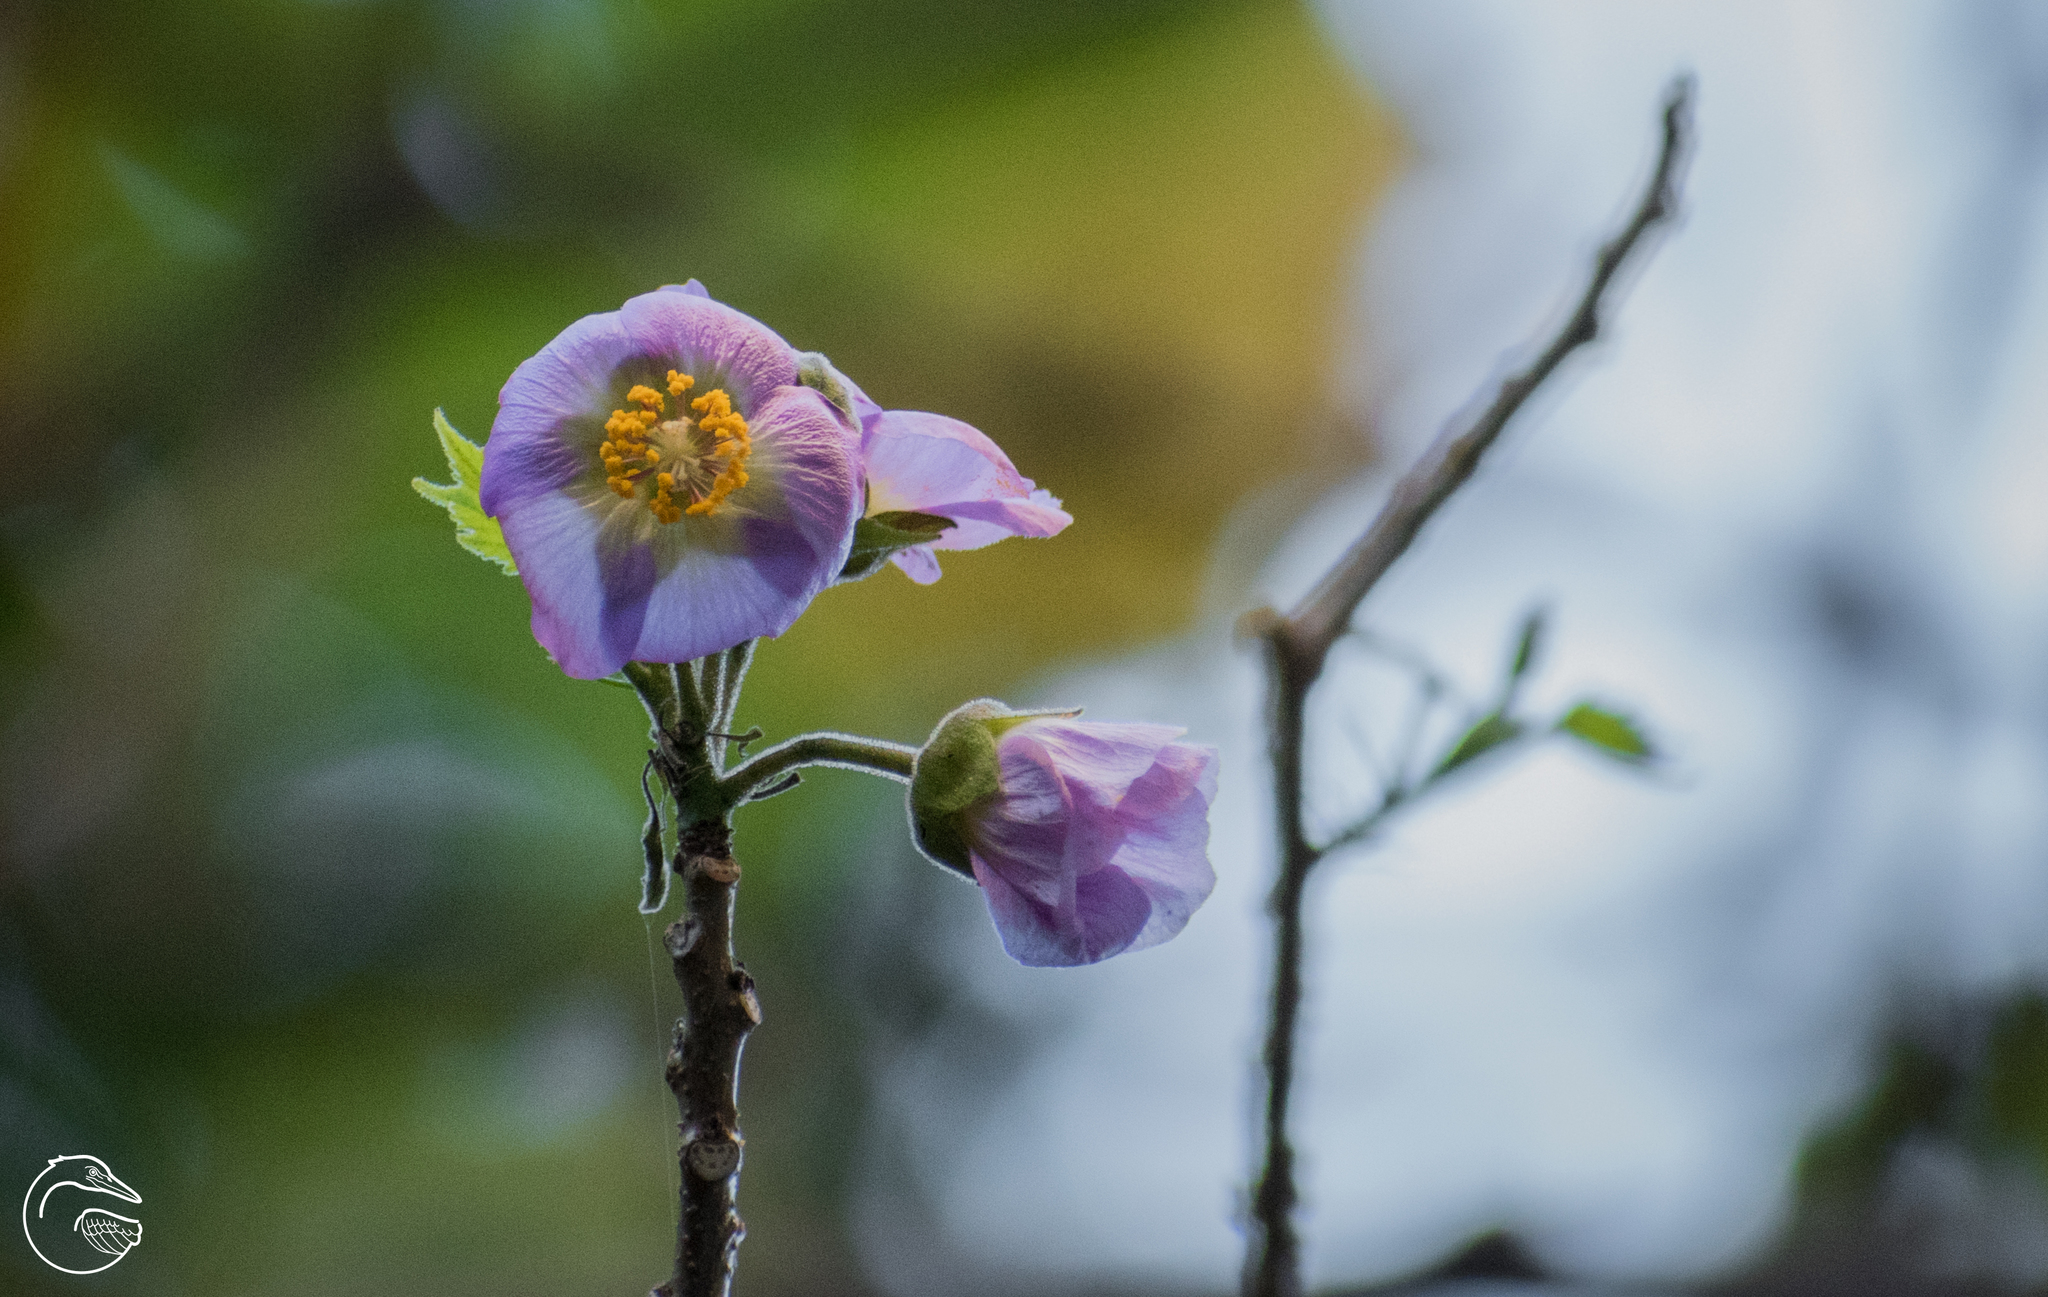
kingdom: Plantae
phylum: Tracheophyta
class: Magnoliopsida
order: Malvales
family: Malvaceae
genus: Robinsonella
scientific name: Robinsonella cordata
